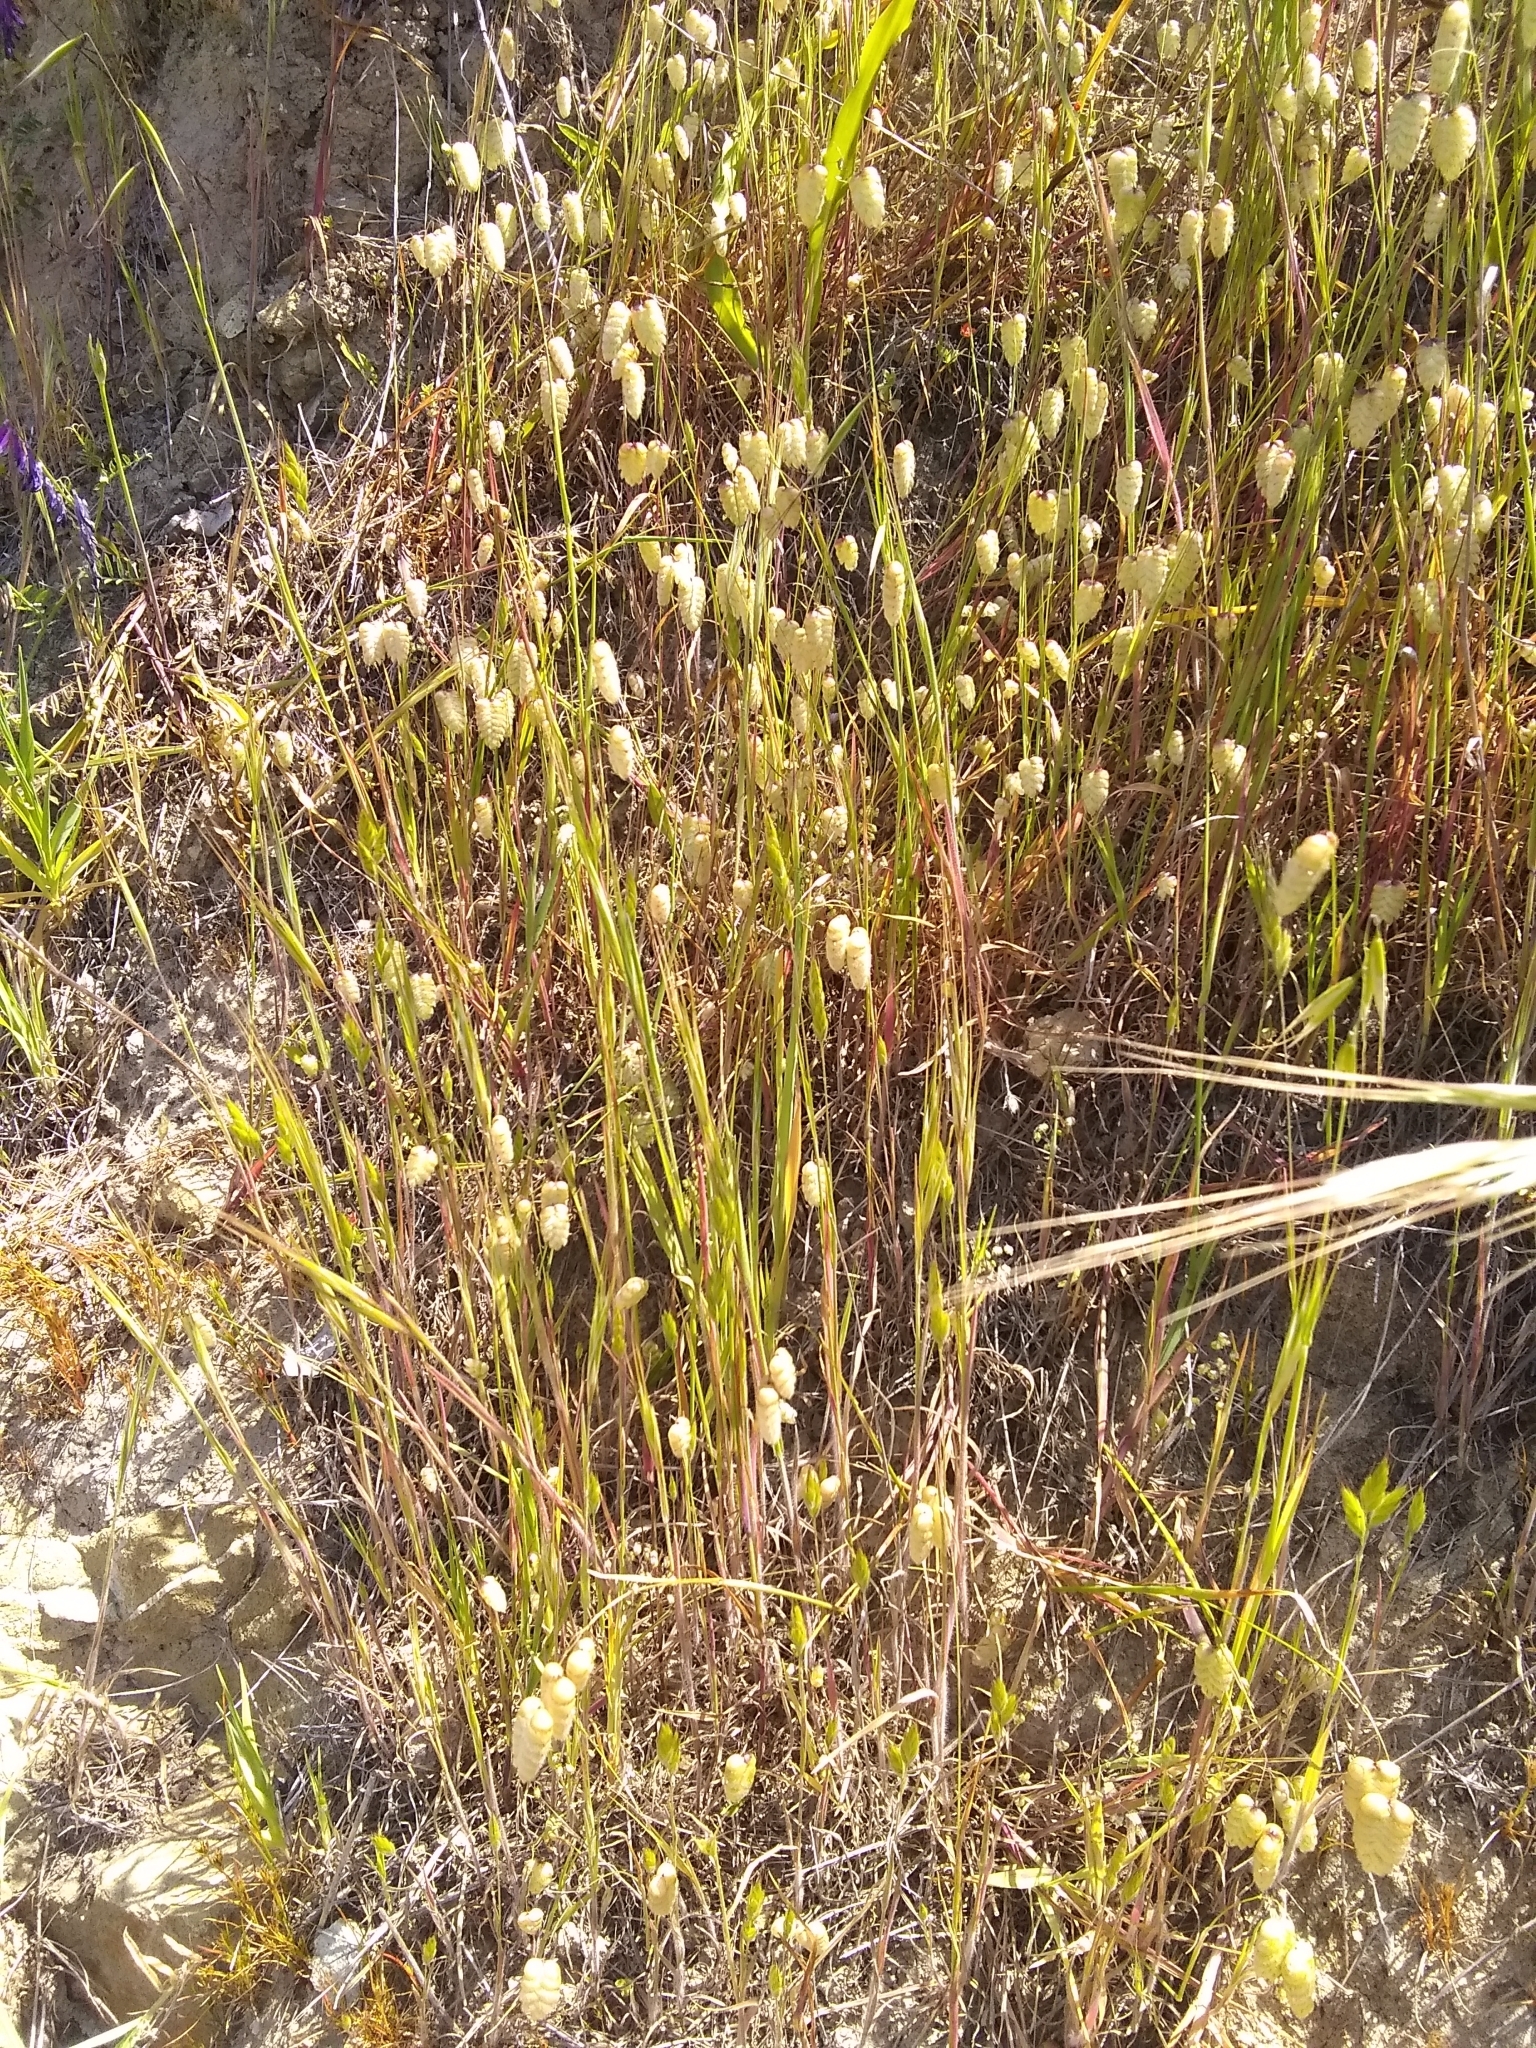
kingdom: Plantae
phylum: Tracheophyta
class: Liliopsida
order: Poales
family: Poaceae
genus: Briza
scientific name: Briza maxima
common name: Big quakinggrass
